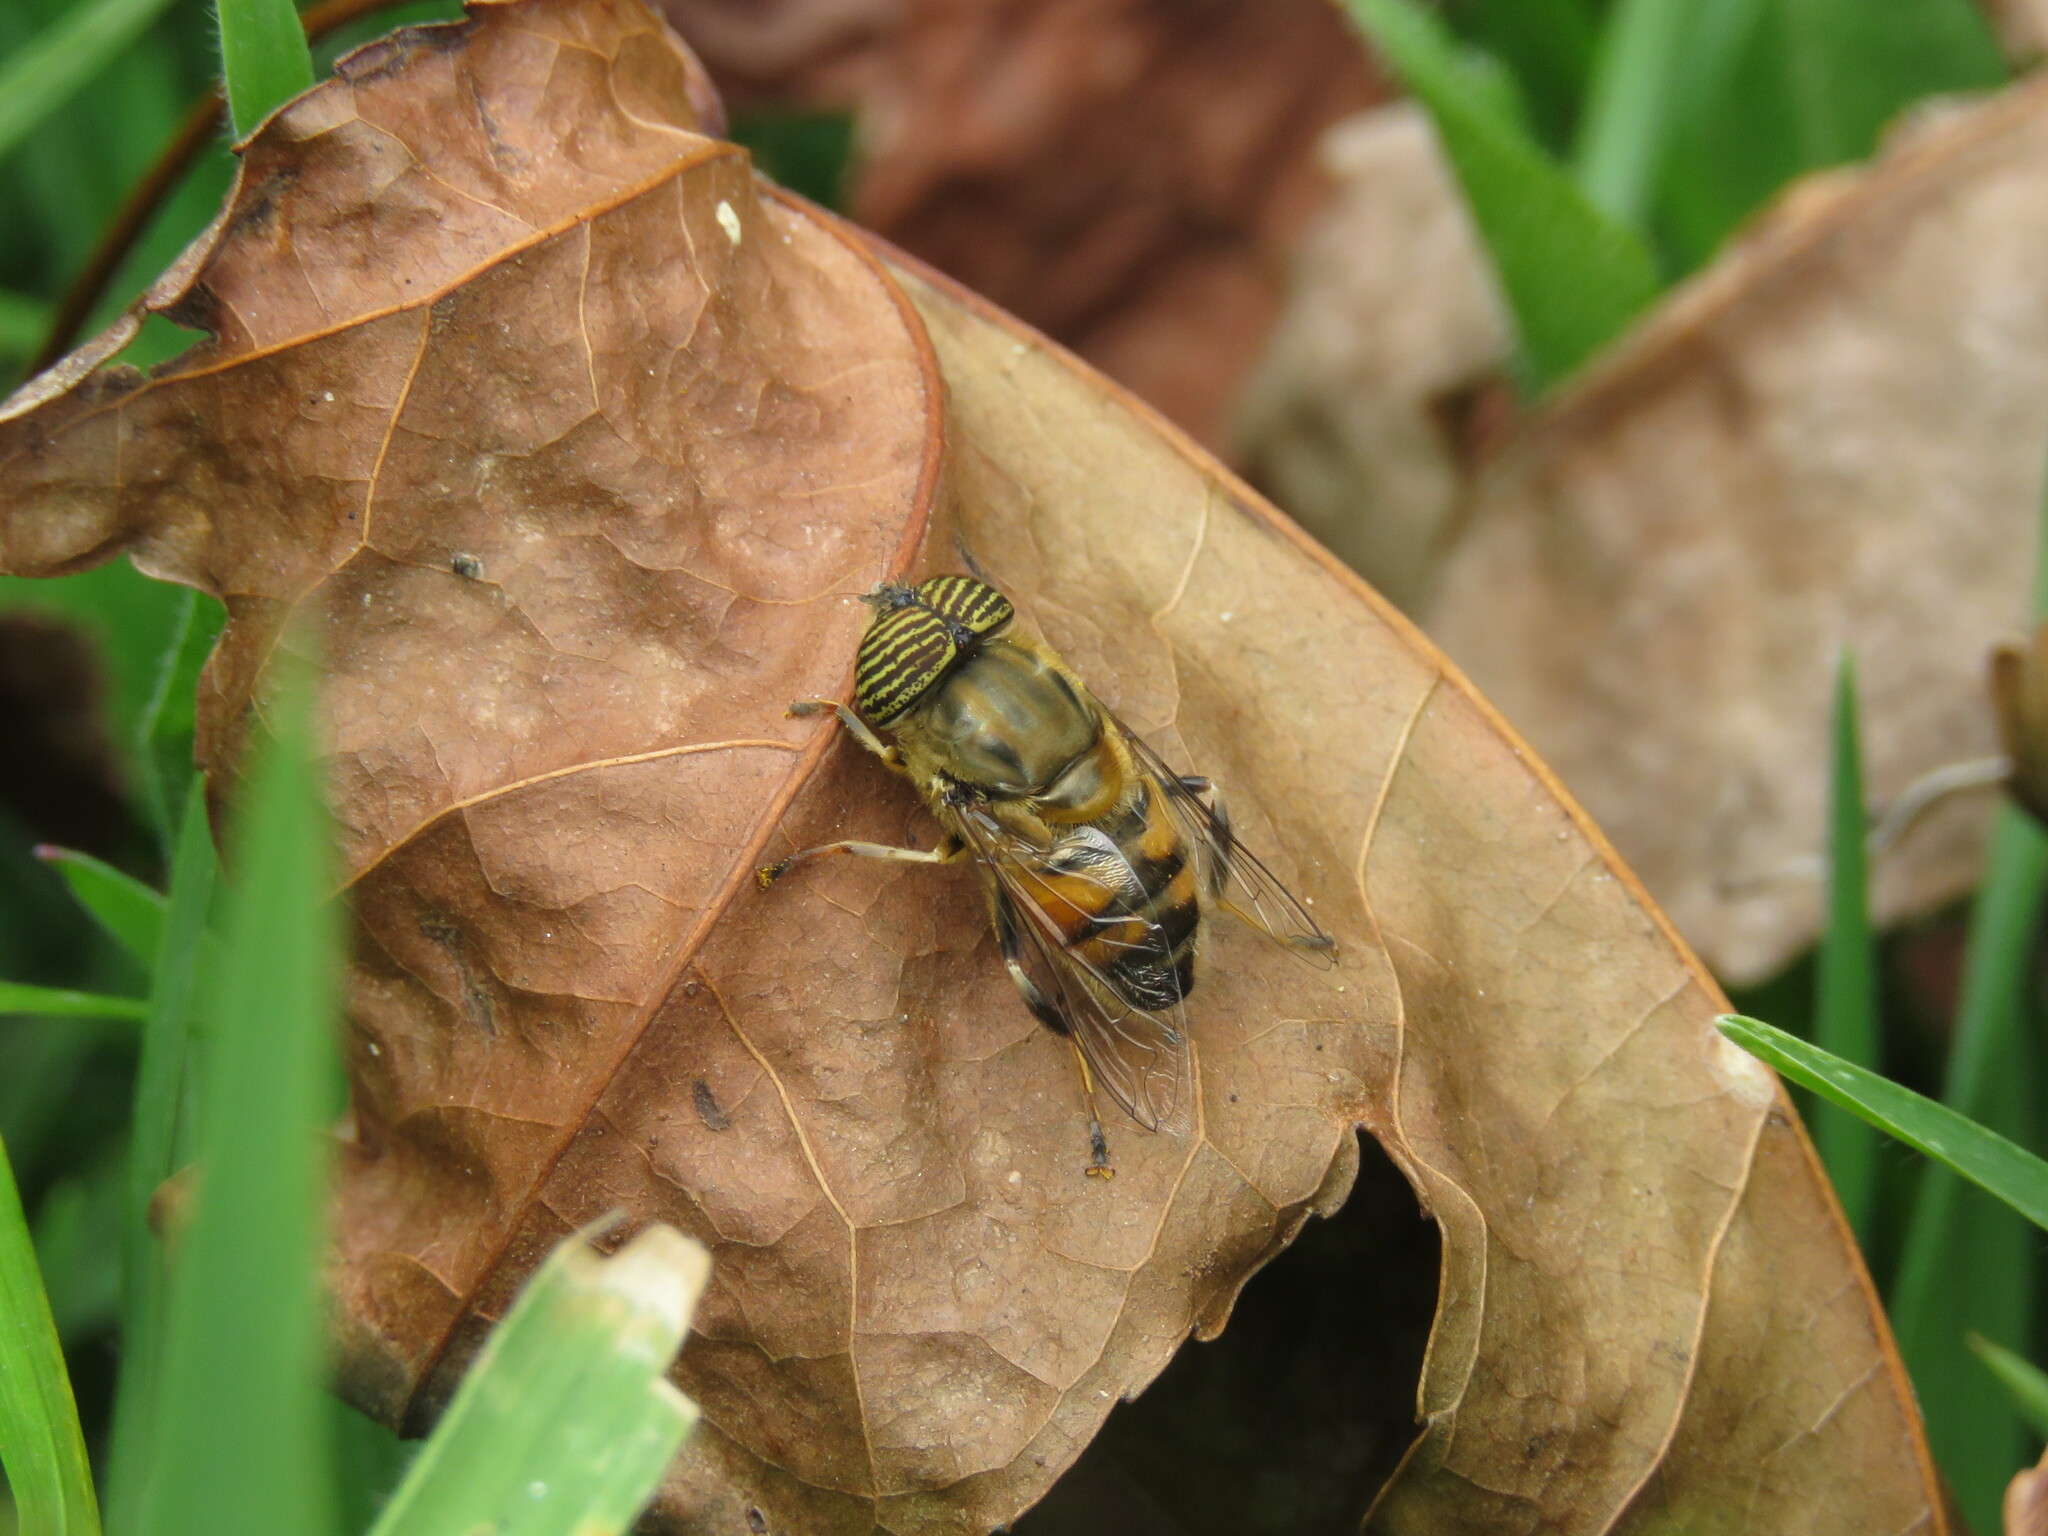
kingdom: Animalia
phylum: Arthropoda
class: Insecta
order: Diptera
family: Syrphidae
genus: Eristalinus
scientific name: Eristalinus taeniops
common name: Syrphid fly
